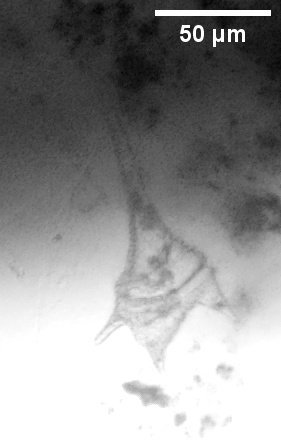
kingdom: Chromista
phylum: Myzozoa
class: Dinophyceae
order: Gonyaulacales
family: Ceratiaceae
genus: Ceratium
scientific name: Ceratium hirundinella
